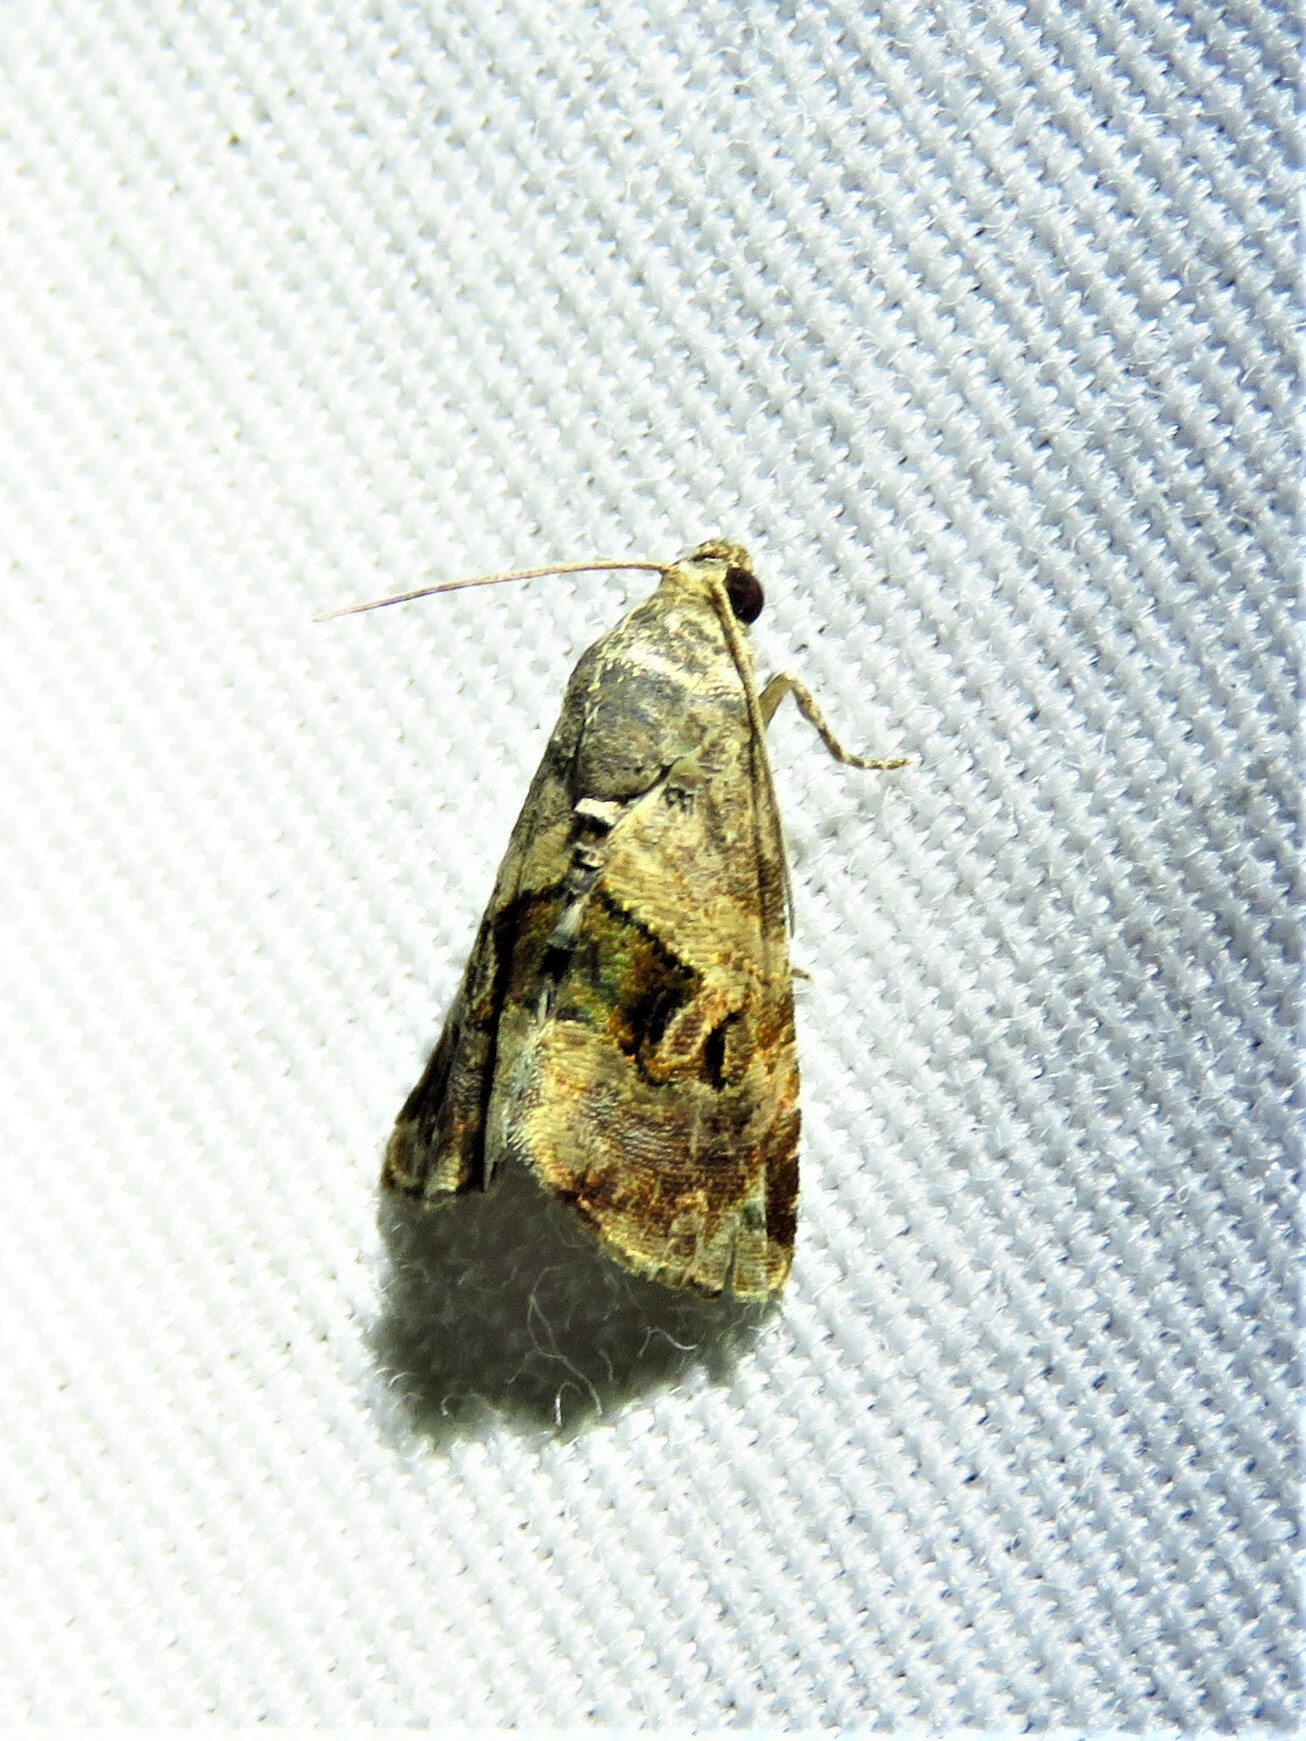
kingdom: Animalia
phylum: Arthropoda
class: Insecta
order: Lepidoptera
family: Noctuidae
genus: Tripudia
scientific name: Tripudia quadrifera
